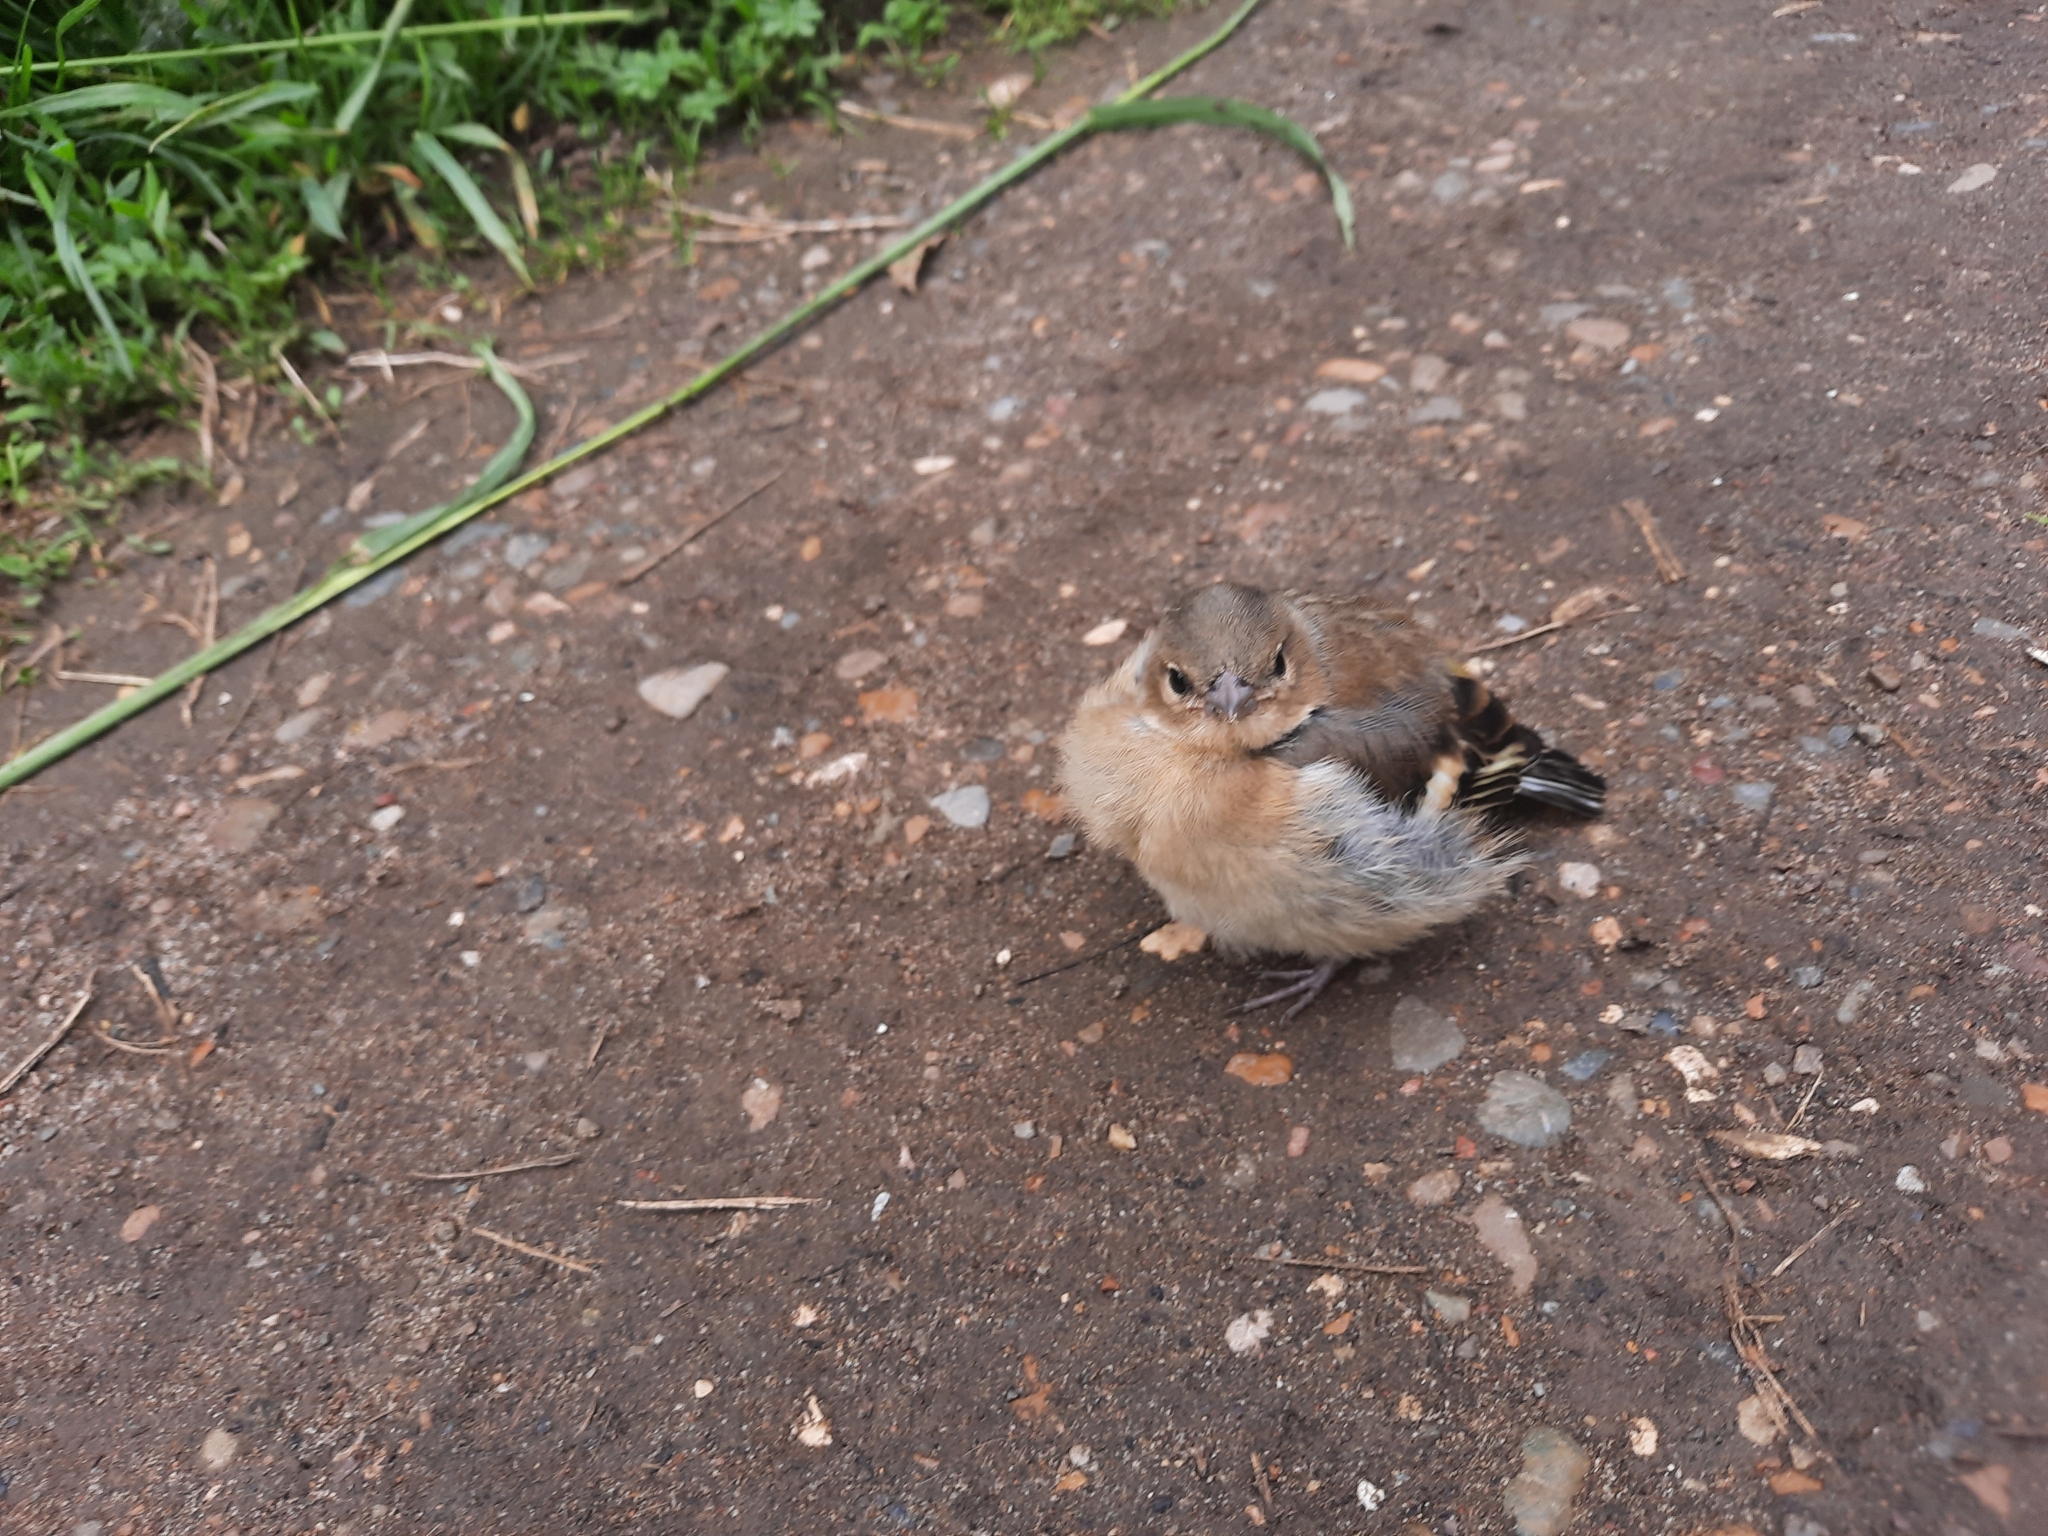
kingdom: Animalia
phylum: Chordata
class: Aves
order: Passeriformes
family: Fringillidae
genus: Fringilla
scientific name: Fringilla coelebs
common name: Common chaffinch
